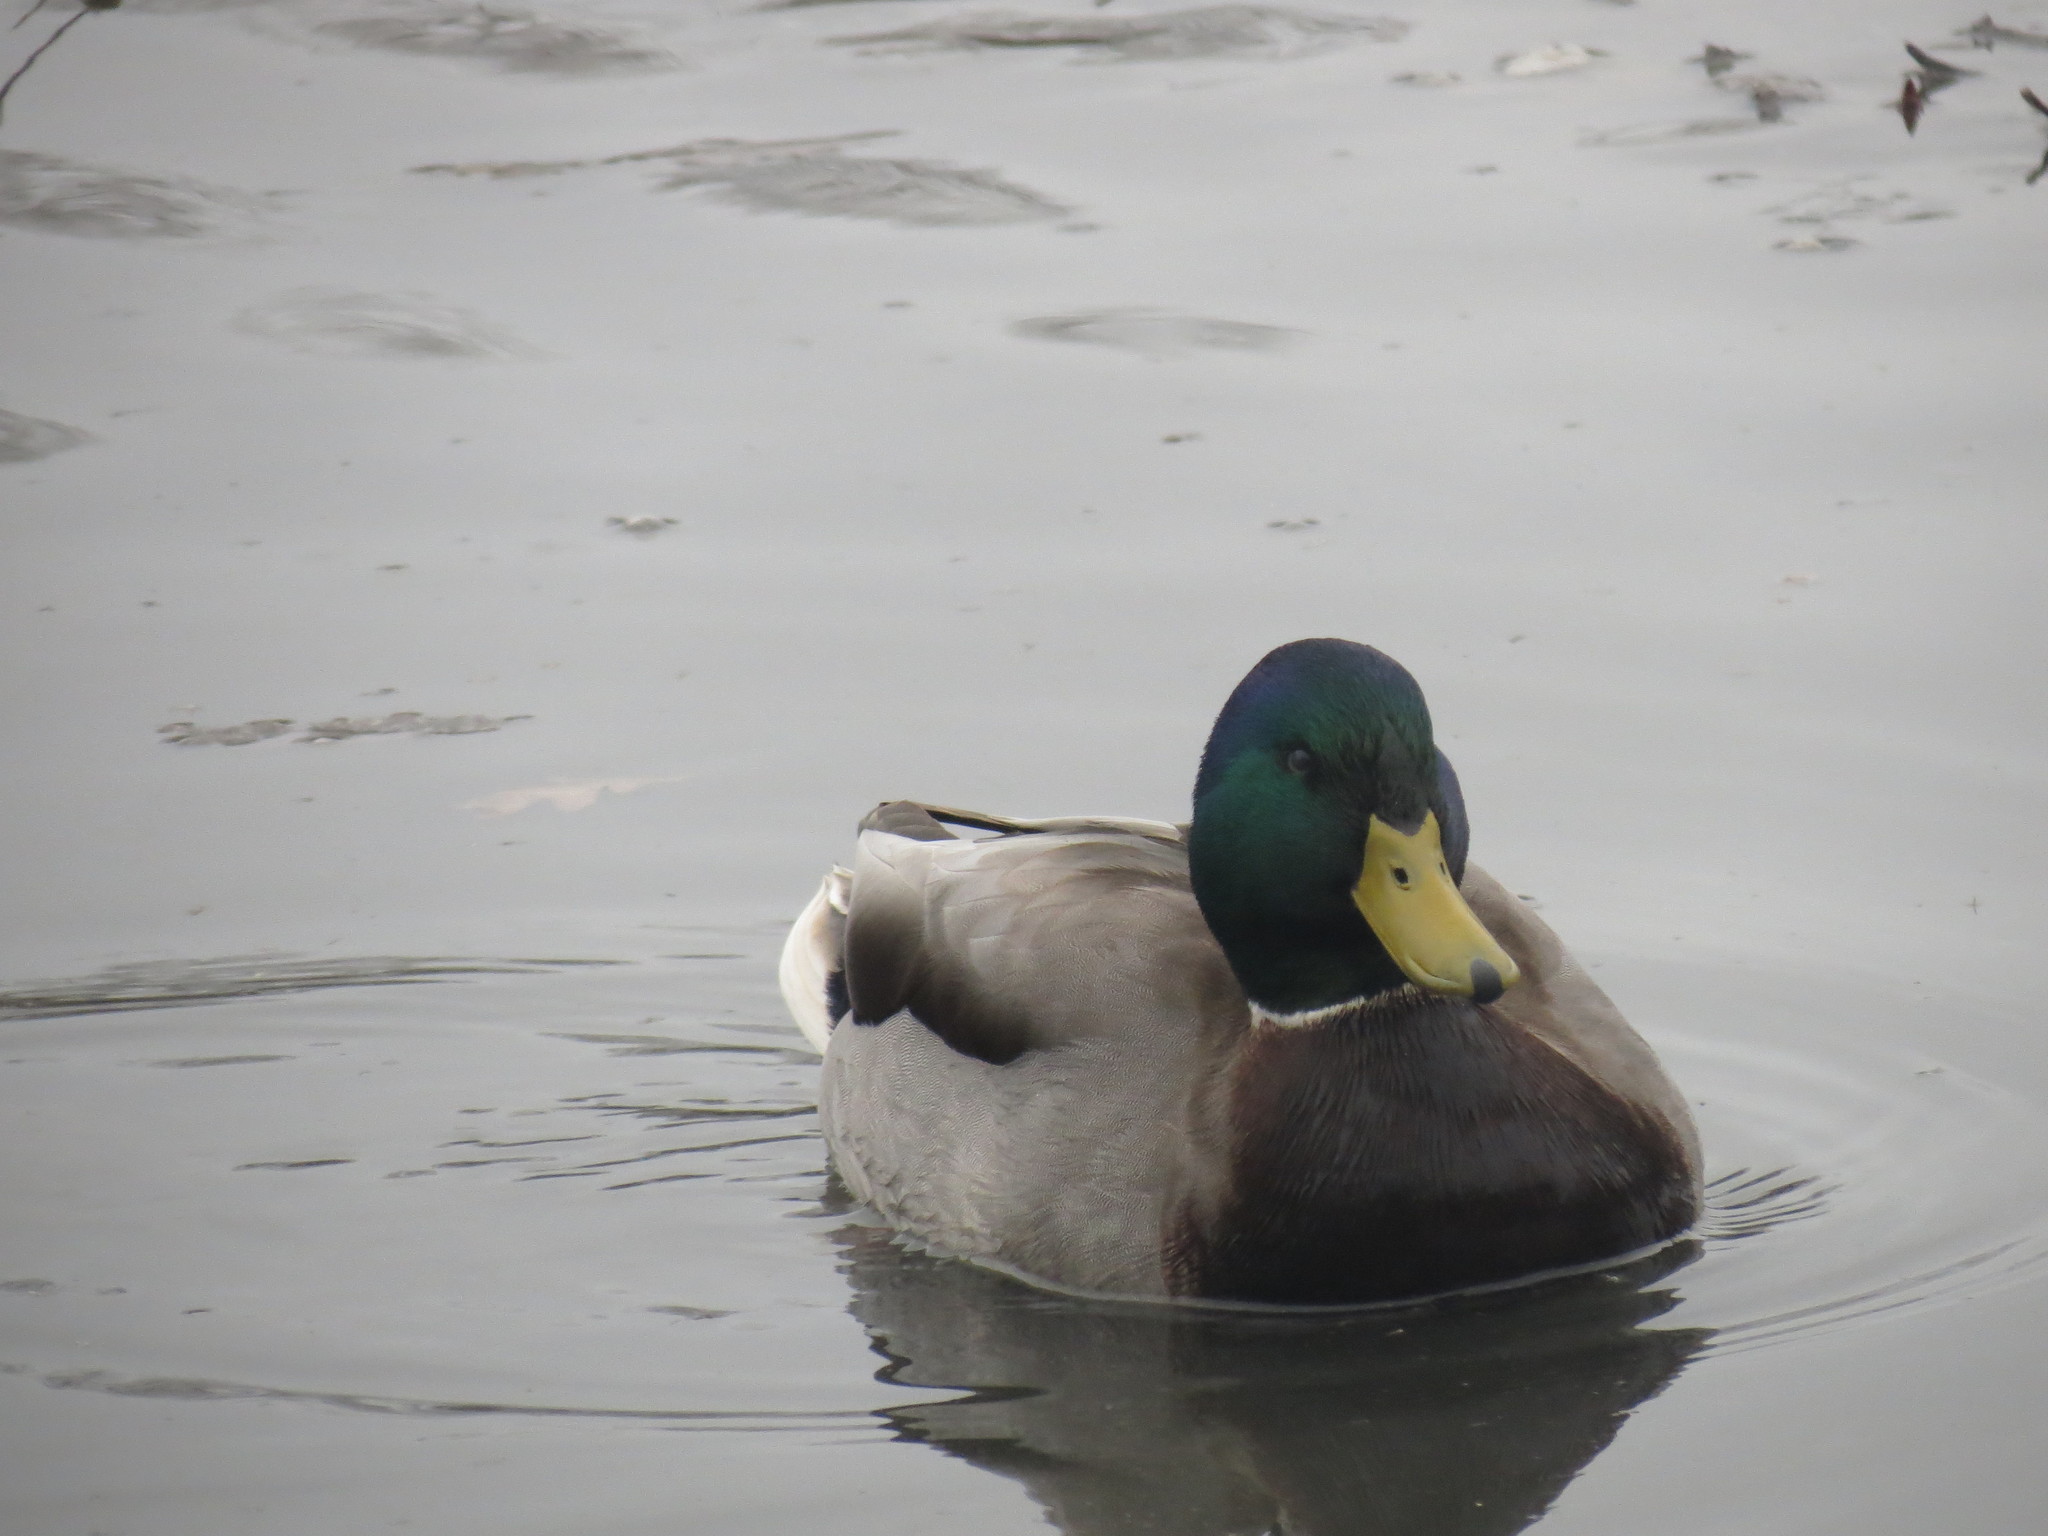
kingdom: Animalia
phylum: Chordata
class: Aves
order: Anseriformes
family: Anatidae
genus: Anas
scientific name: Anas platyrhynchos
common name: Mallard
